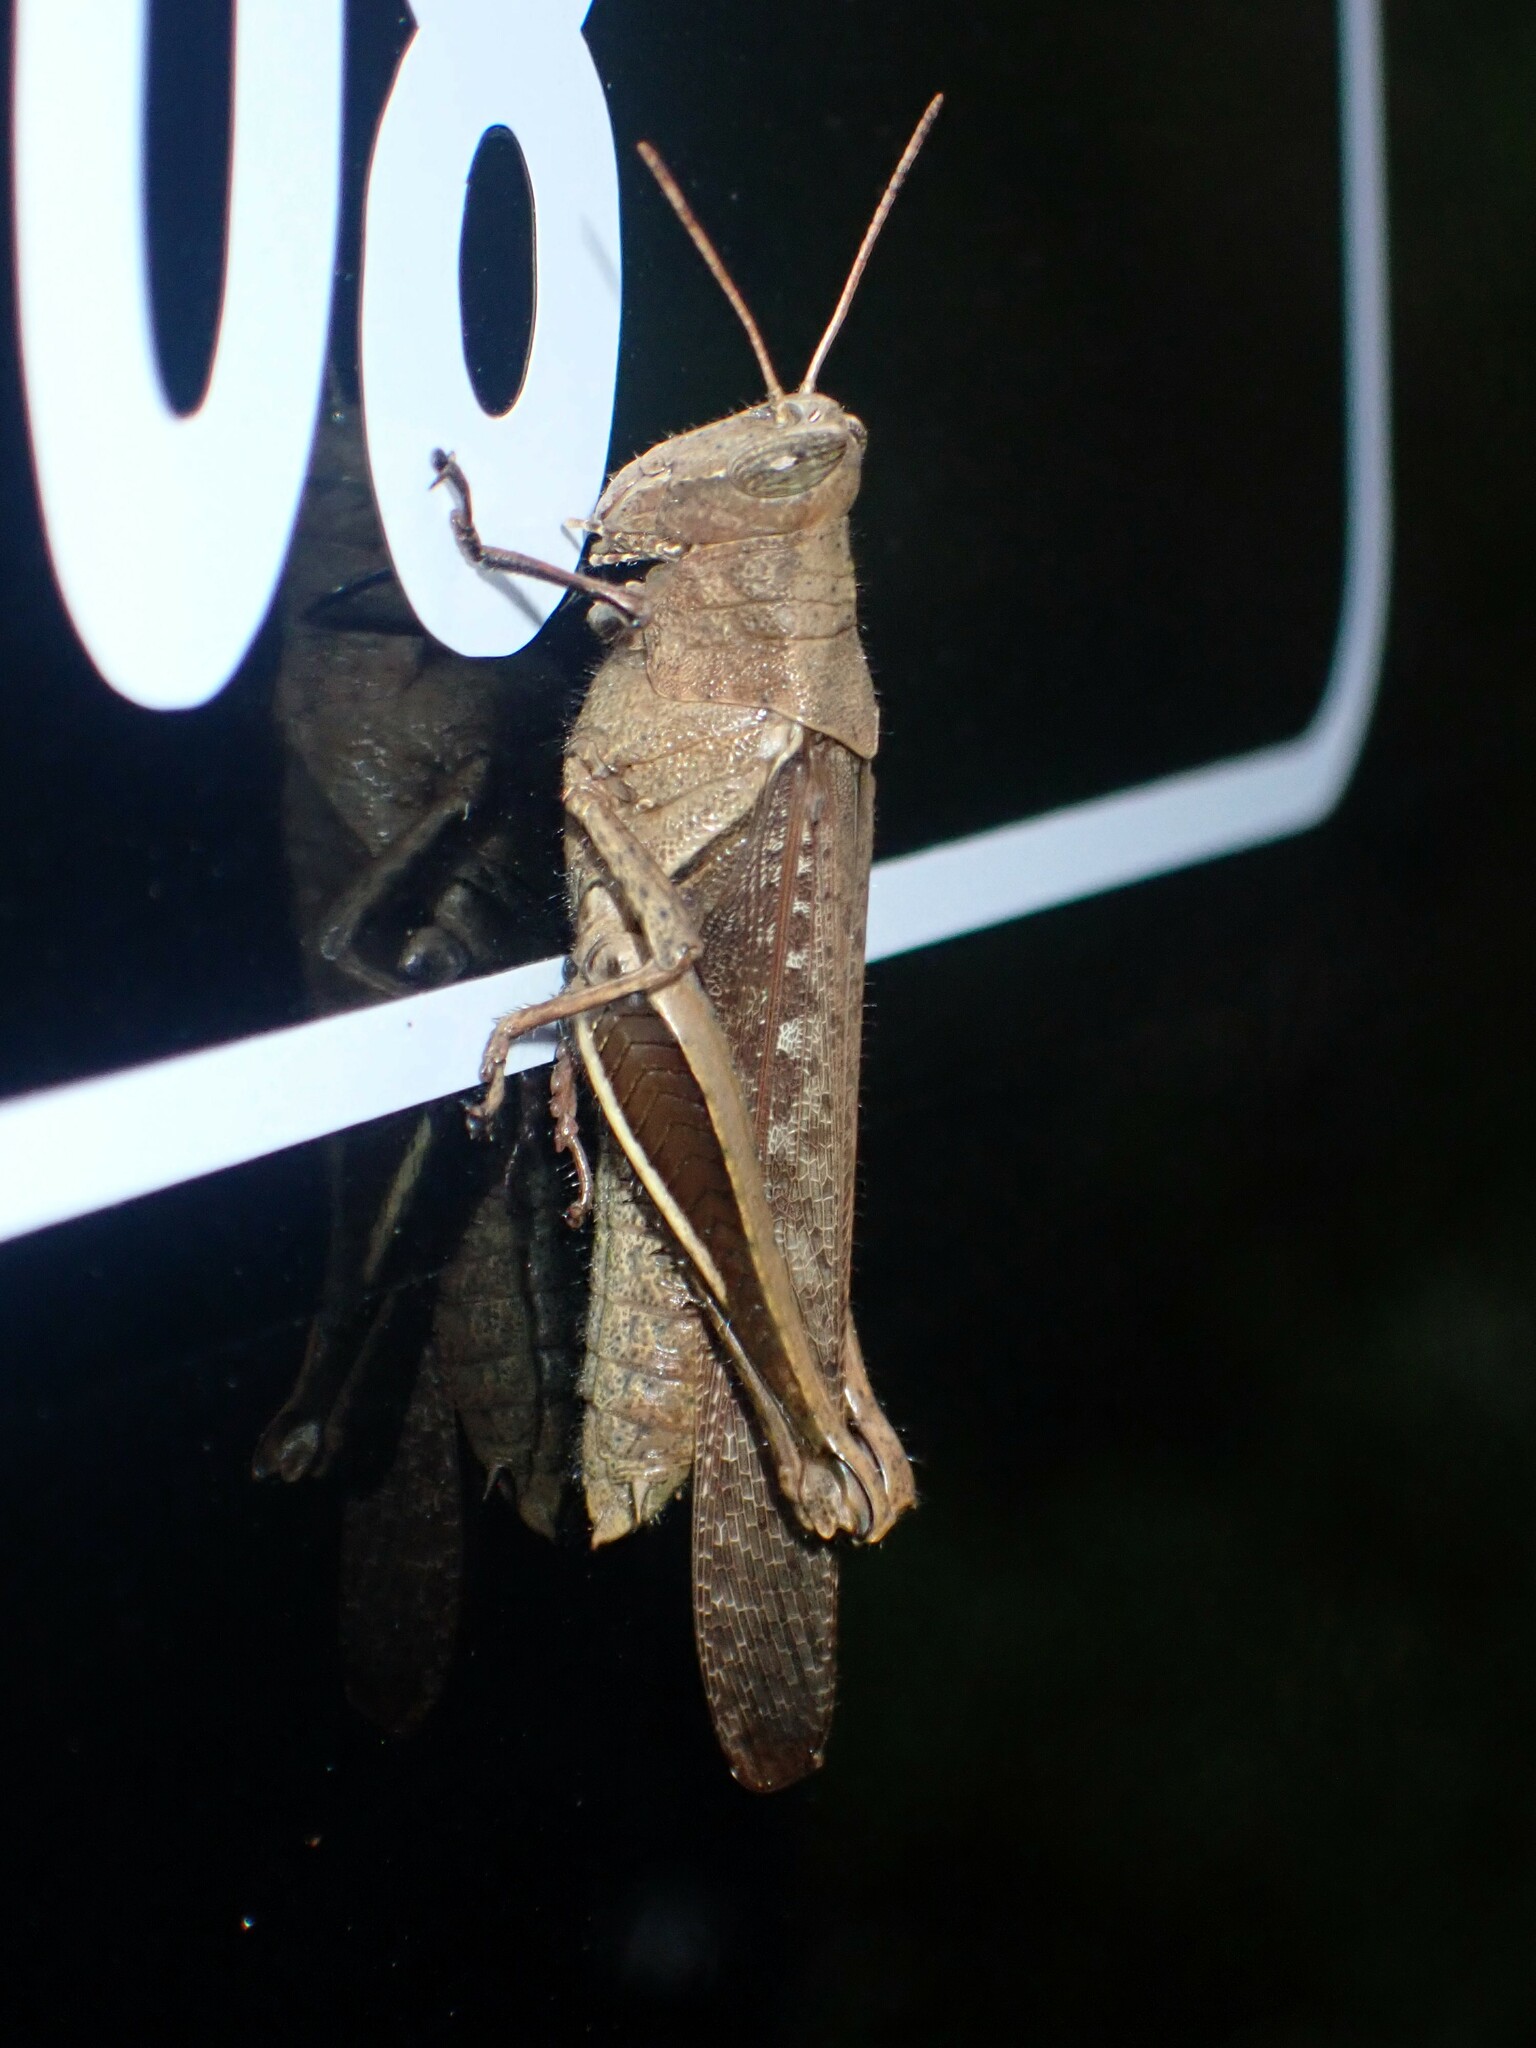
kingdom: Animalia
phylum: Arthropoda
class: Insecta
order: Orthoptera
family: Acrididae
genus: Abracris
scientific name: Abracris flavolineata
